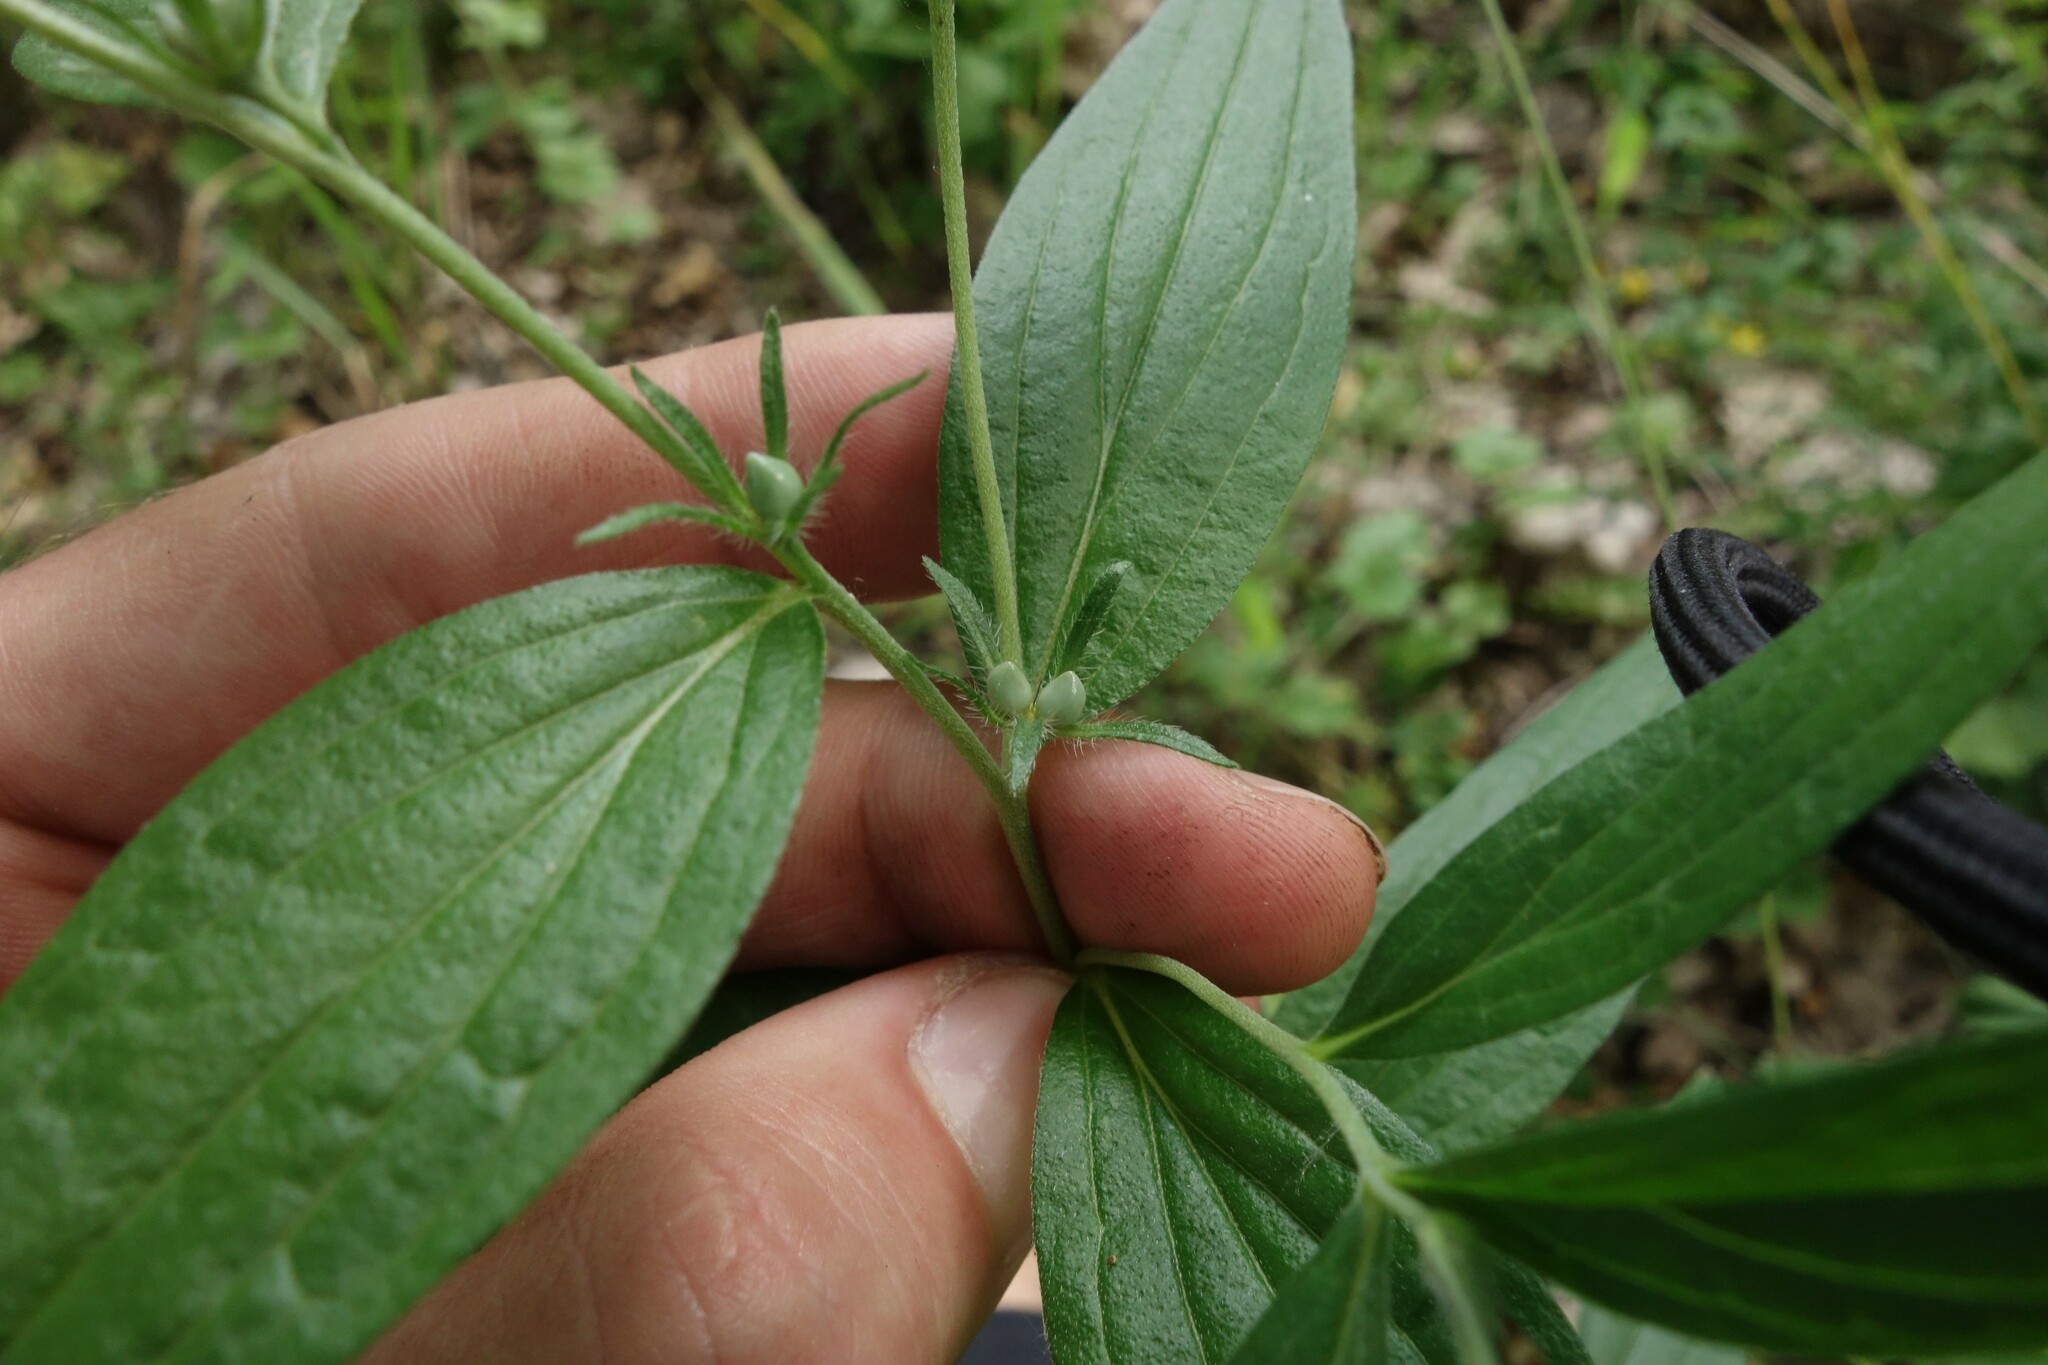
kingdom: Plantae
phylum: Tracheophyta
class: Magnoliopsida
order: Boraginales
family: Boraginaceae
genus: Lithospermum
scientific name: Lithospermum officinale
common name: Common gromwell
